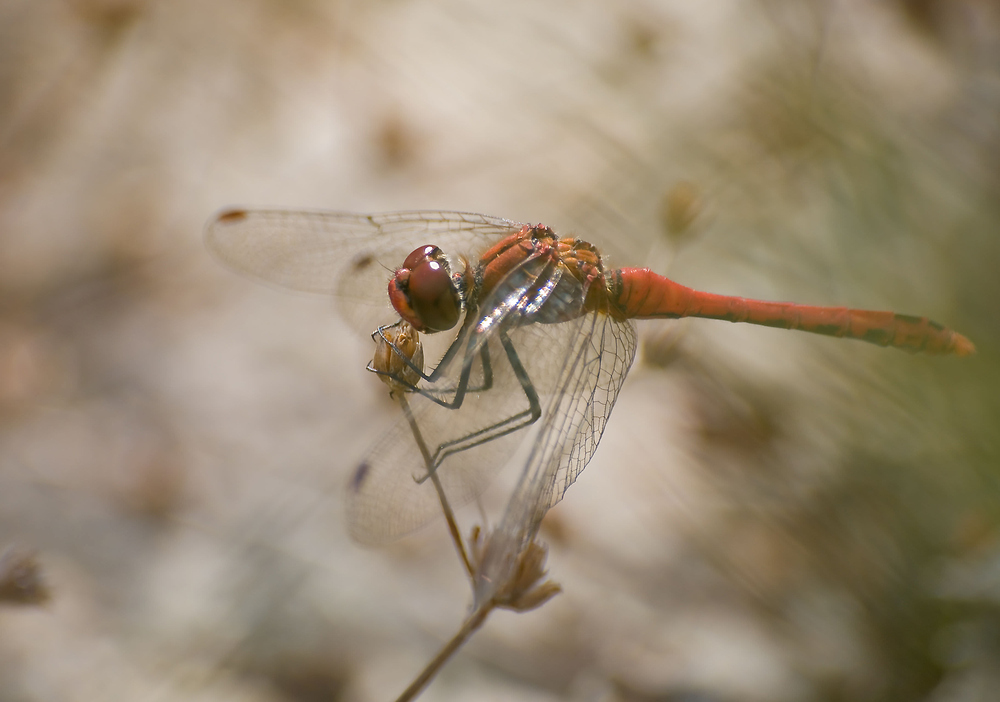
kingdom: Animalia
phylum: Arthropoda
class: Insecta
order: Odonata
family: Libellulidae
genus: Sympetrum
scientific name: Sympetrum sanguineum
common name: Ruddy darter
